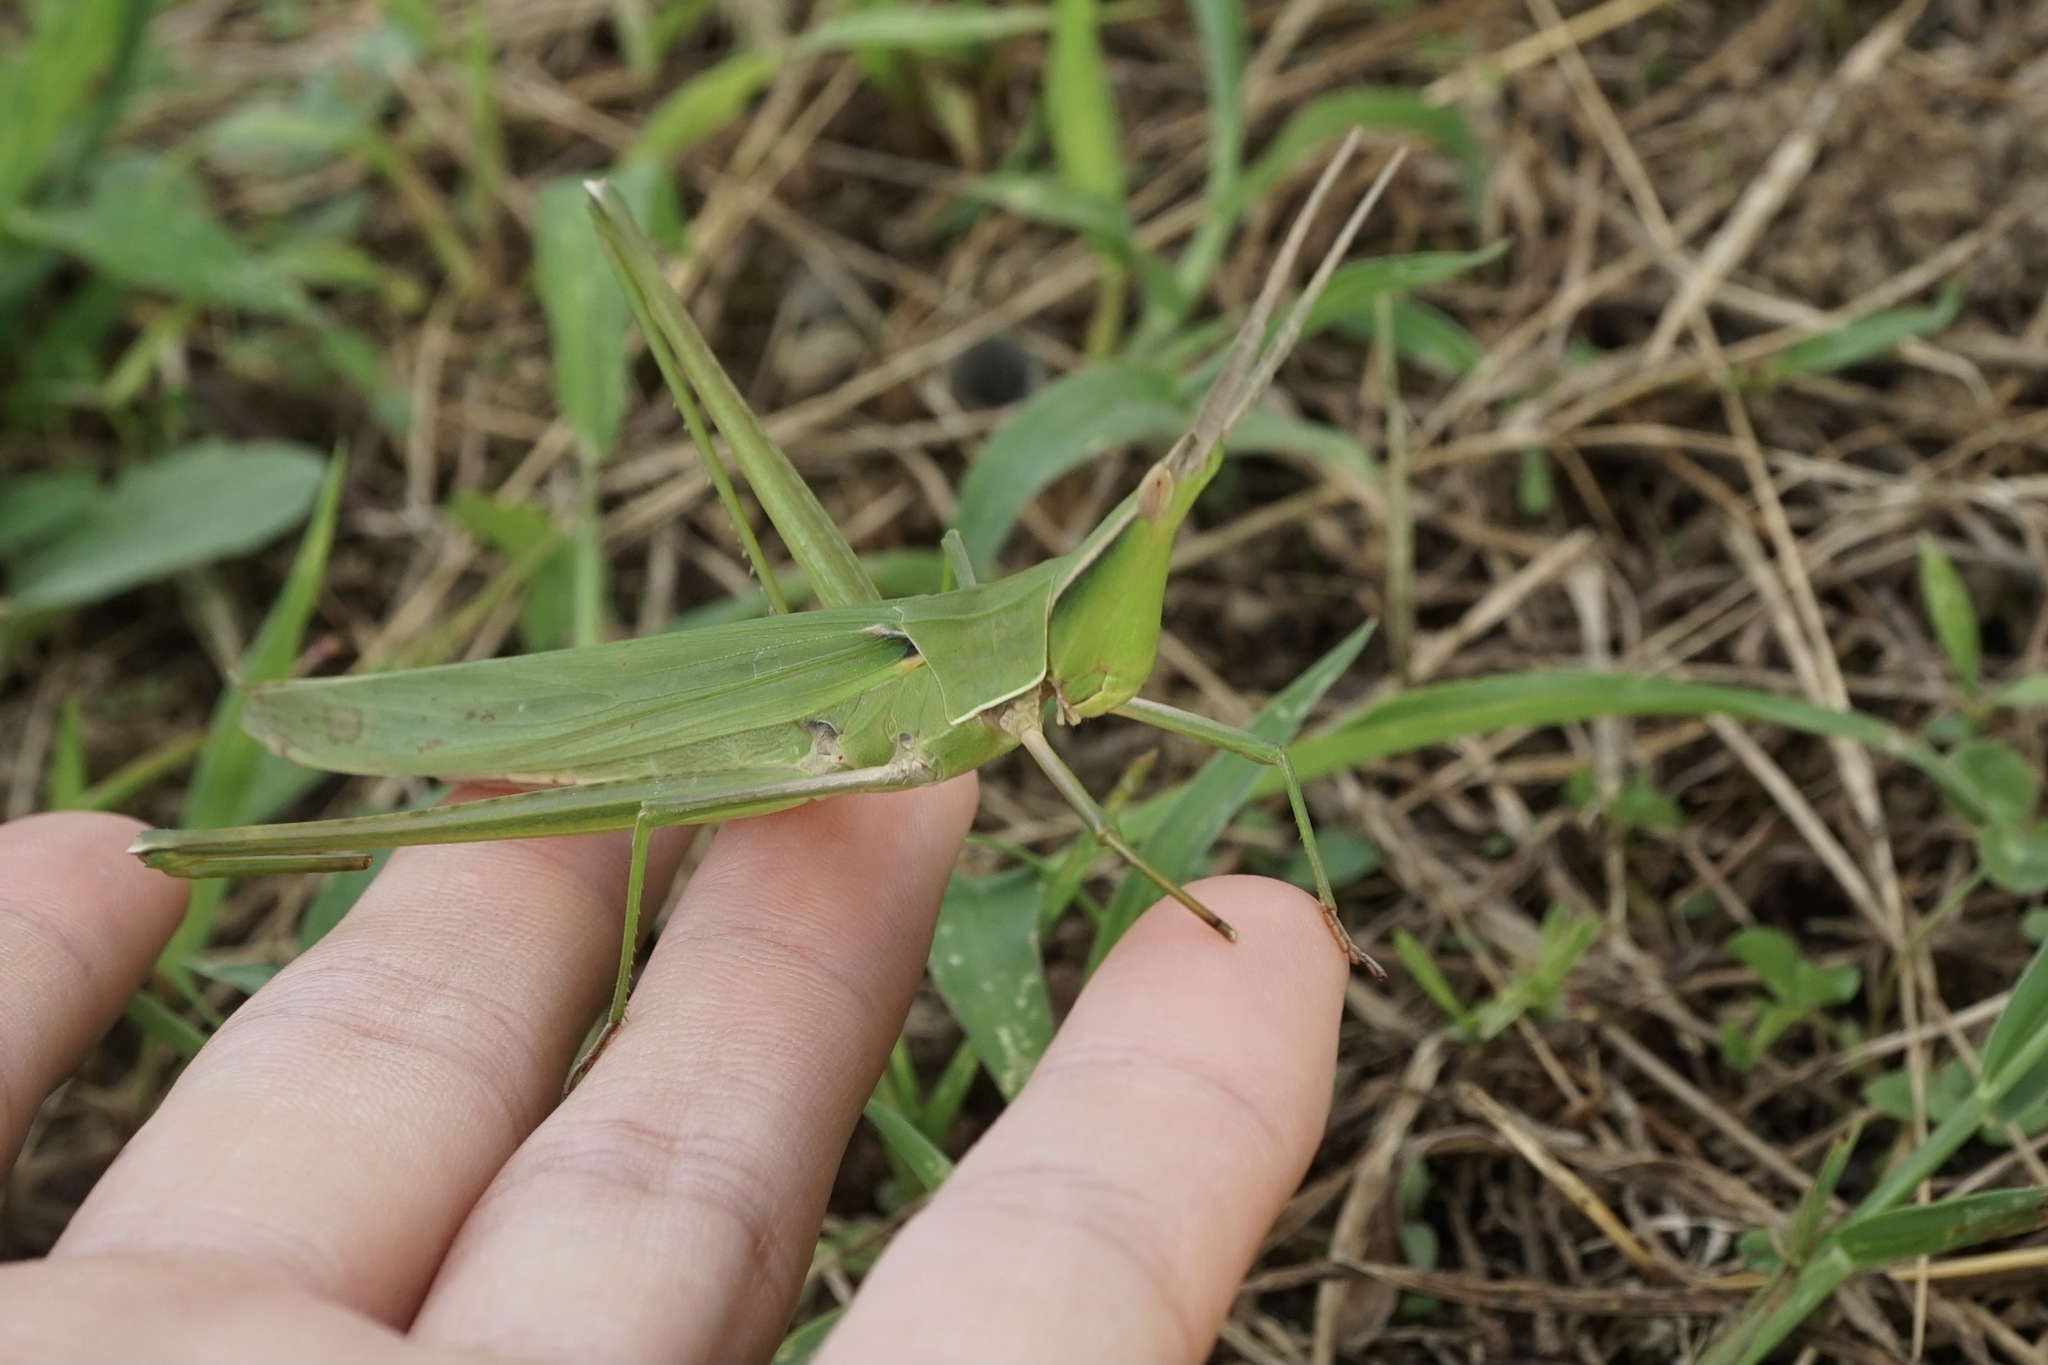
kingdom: Animalia
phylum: Arthropoda
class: Insecta
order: Orthoptera
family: Acrididae
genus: Acrida
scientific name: Acrida cinerea
